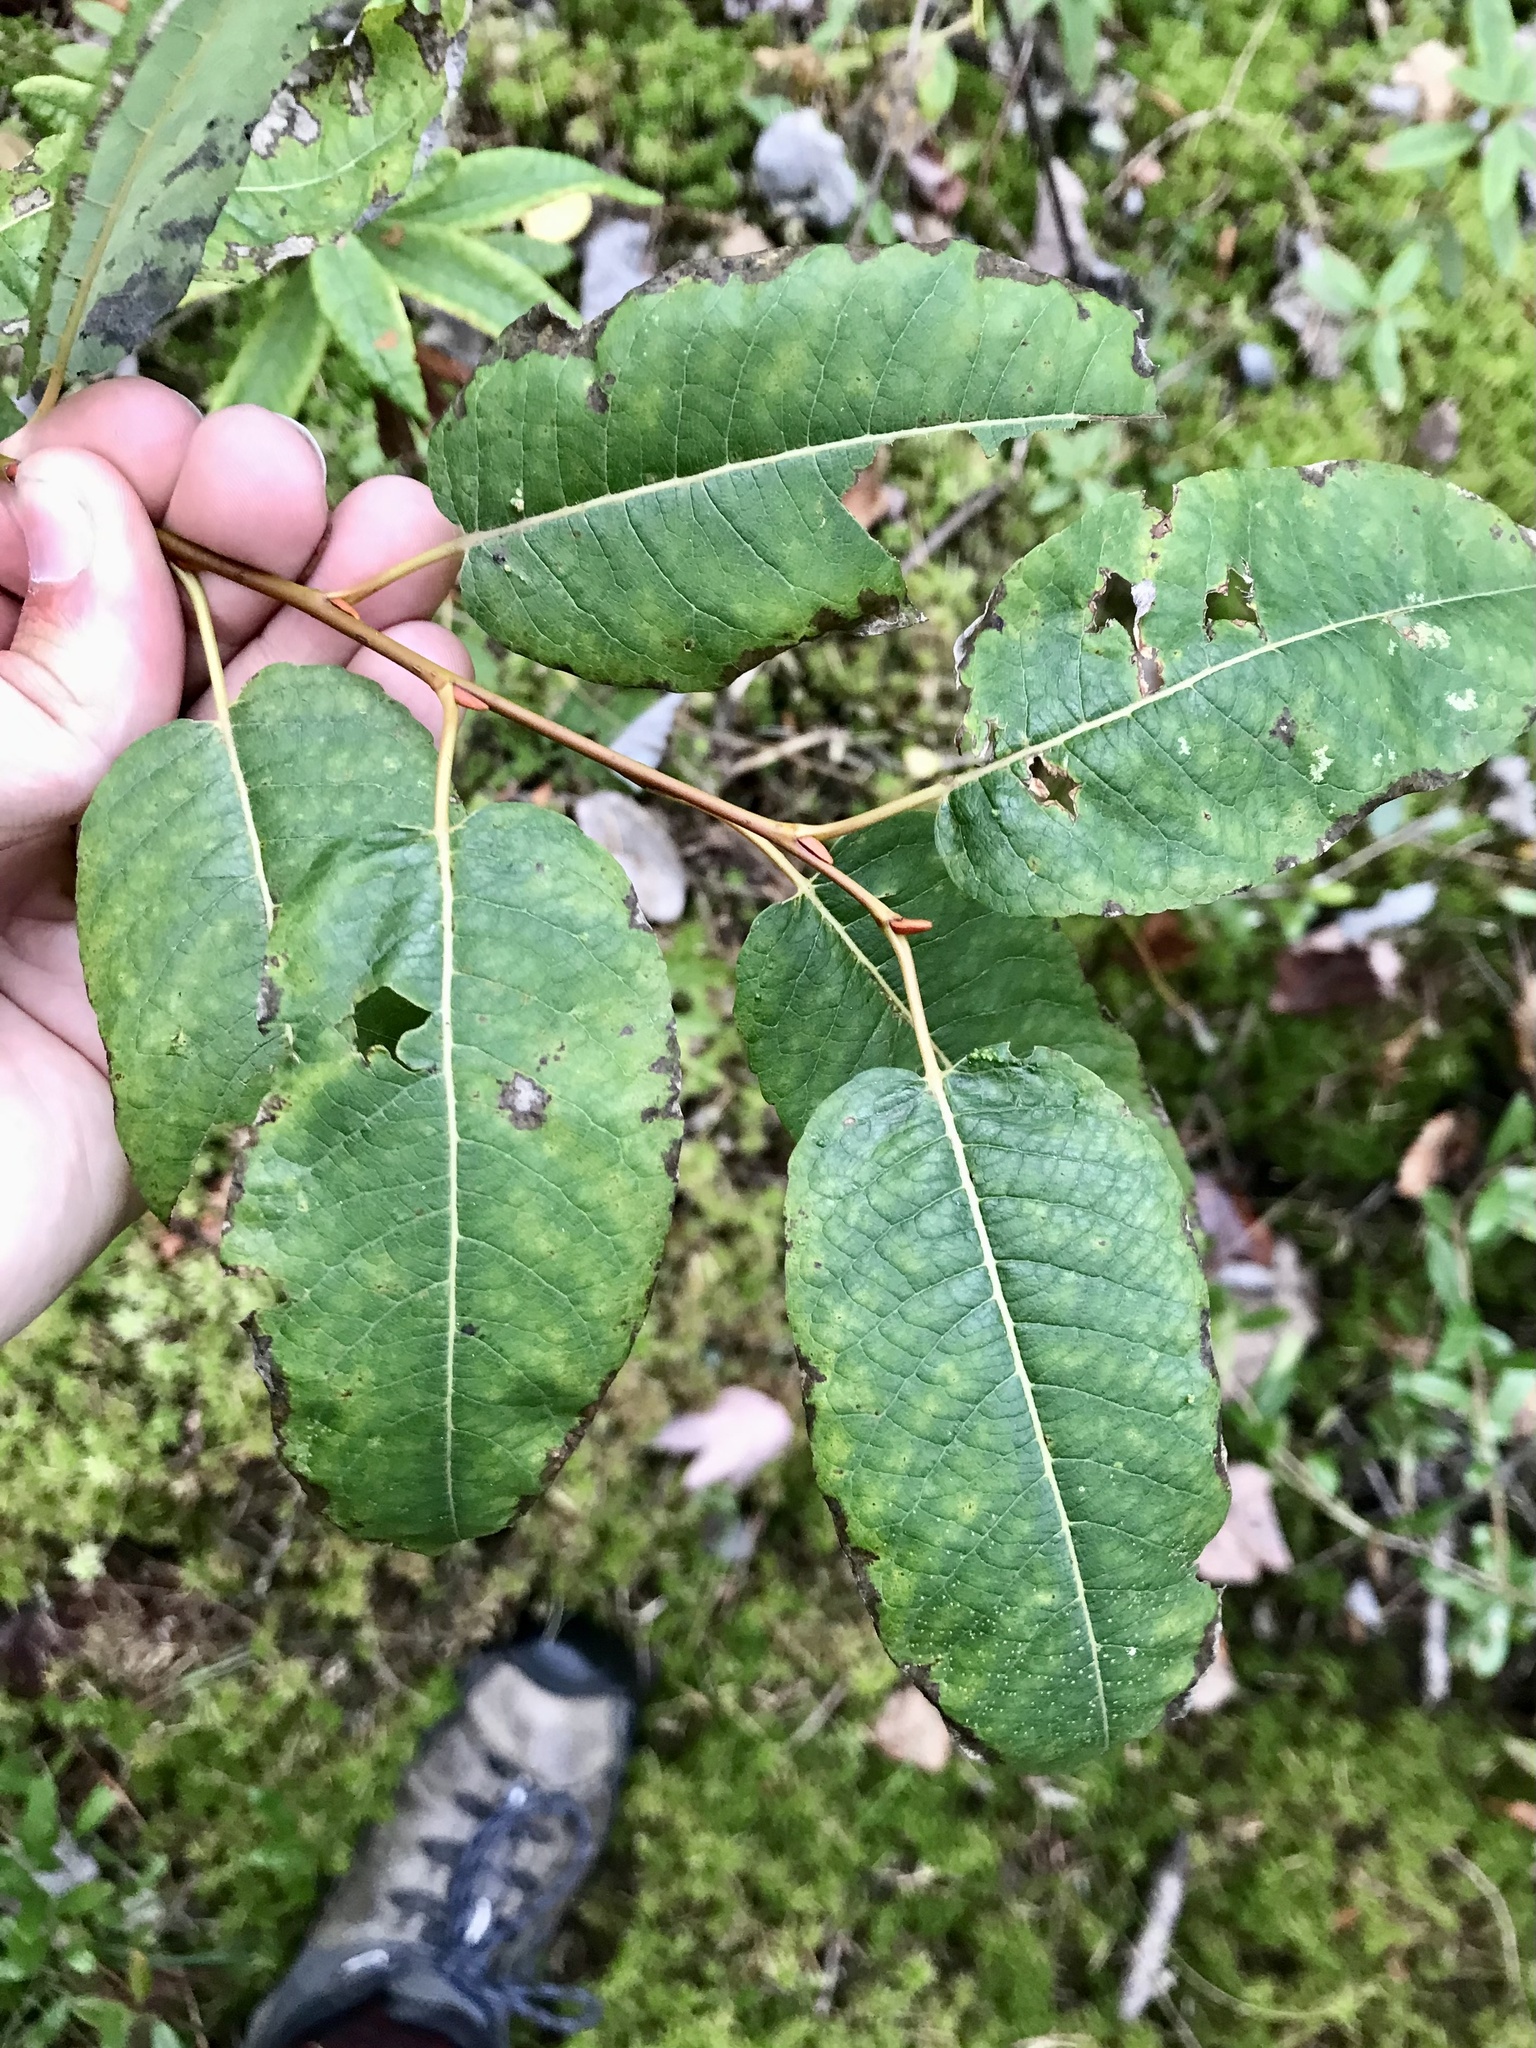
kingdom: Plantae
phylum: Tracheophyta
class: Magnoliopsida
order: Malpighiales
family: Salicaceae
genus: Salix
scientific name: Salix pyrifolia
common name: Balsam willow
